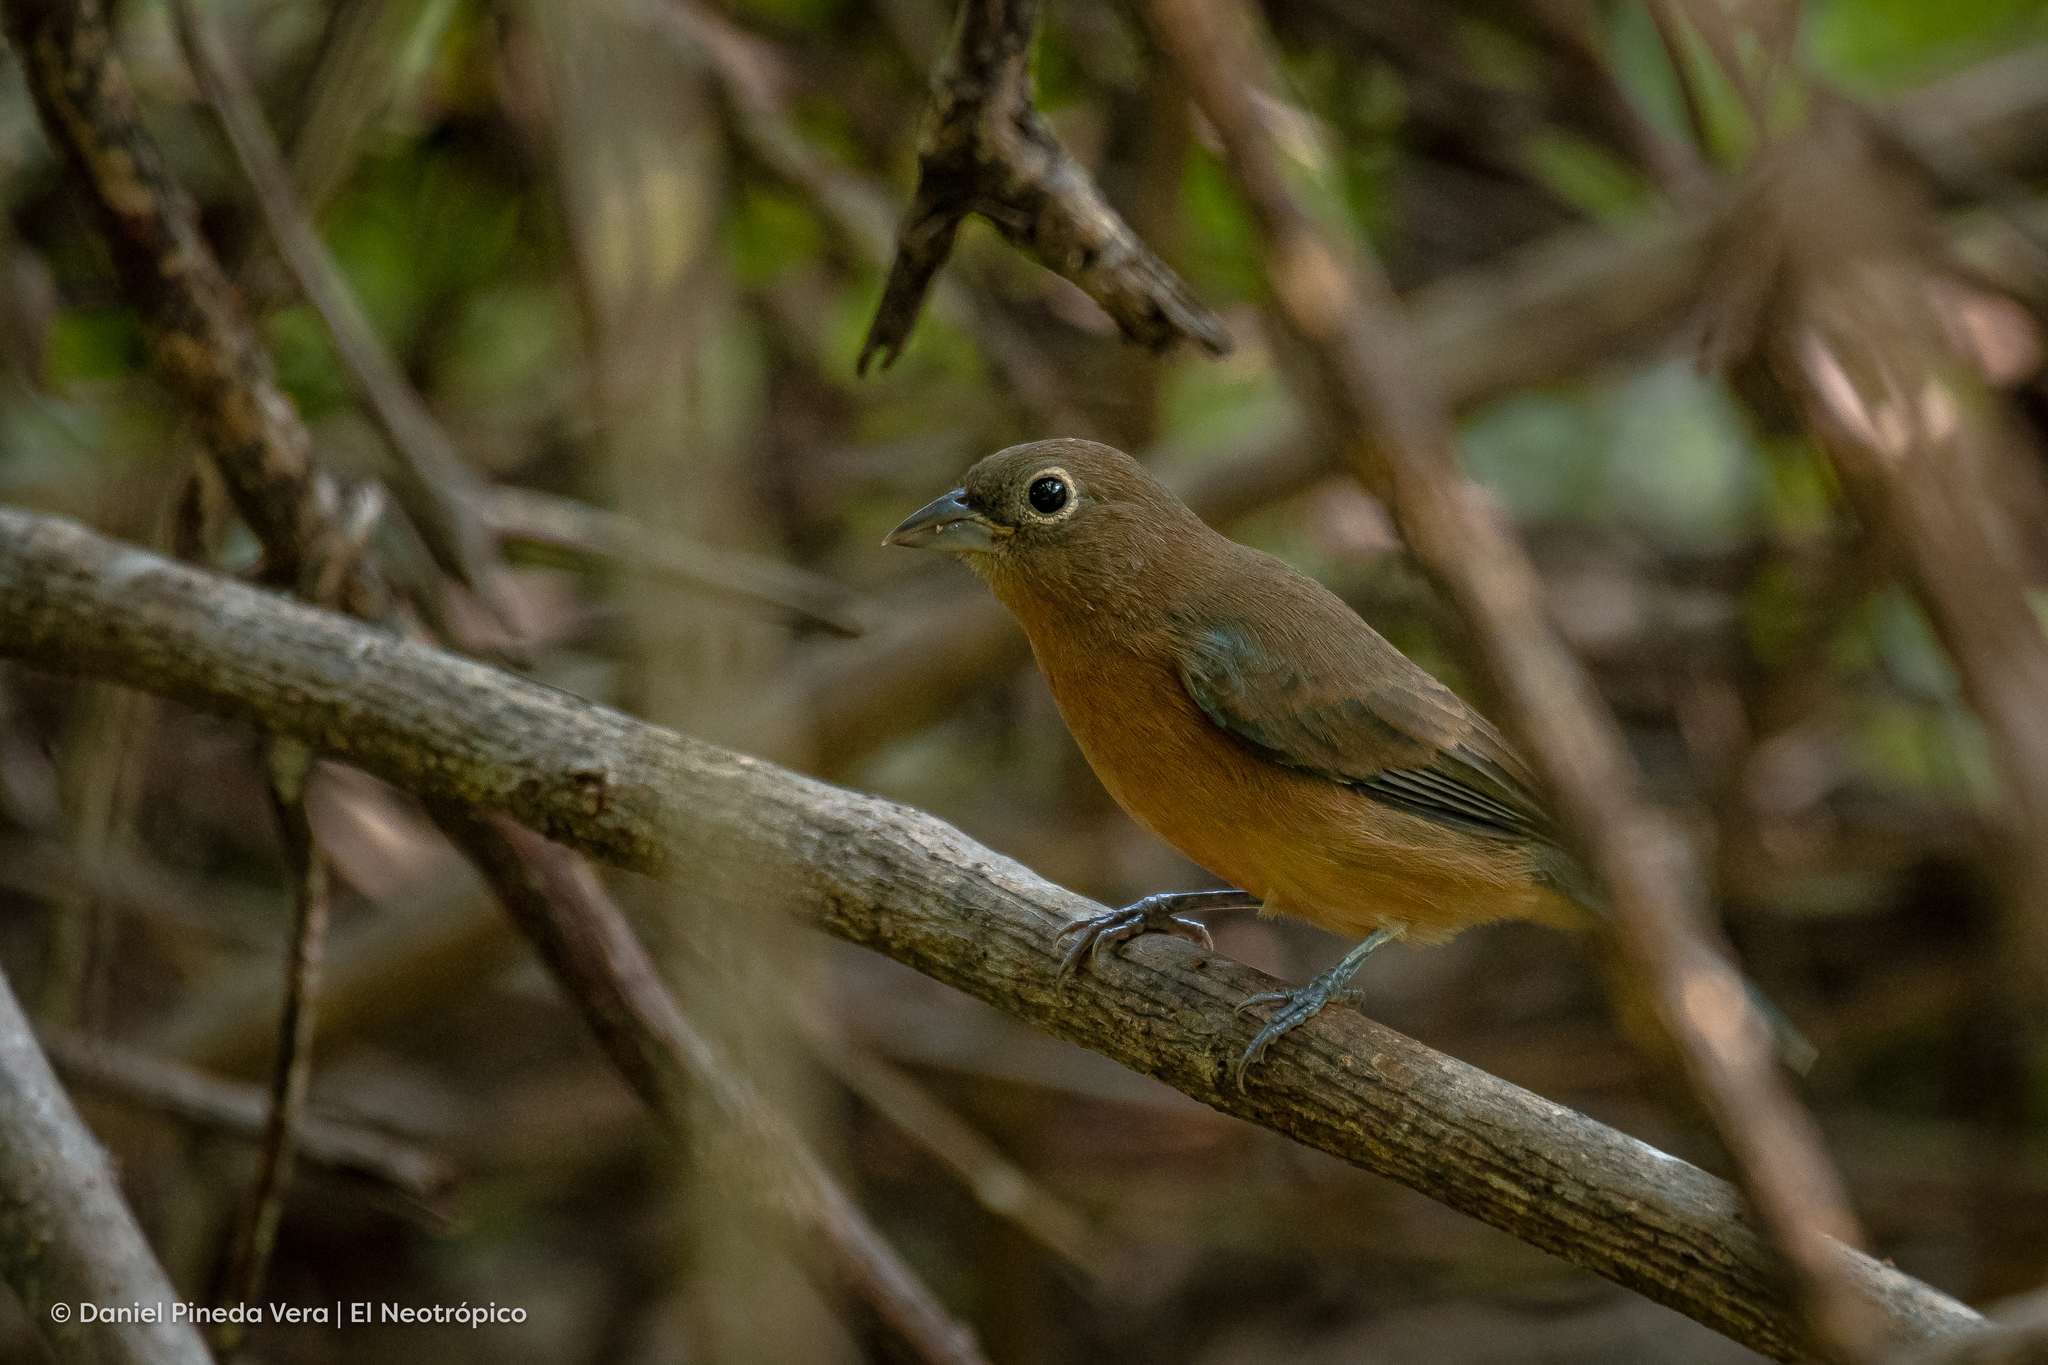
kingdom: Animalia
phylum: Chordata
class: Aves
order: Passeriformes
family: Cardinalidae
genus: Passerina
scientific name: Passerina rositae
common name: Rose-bellied bunting
